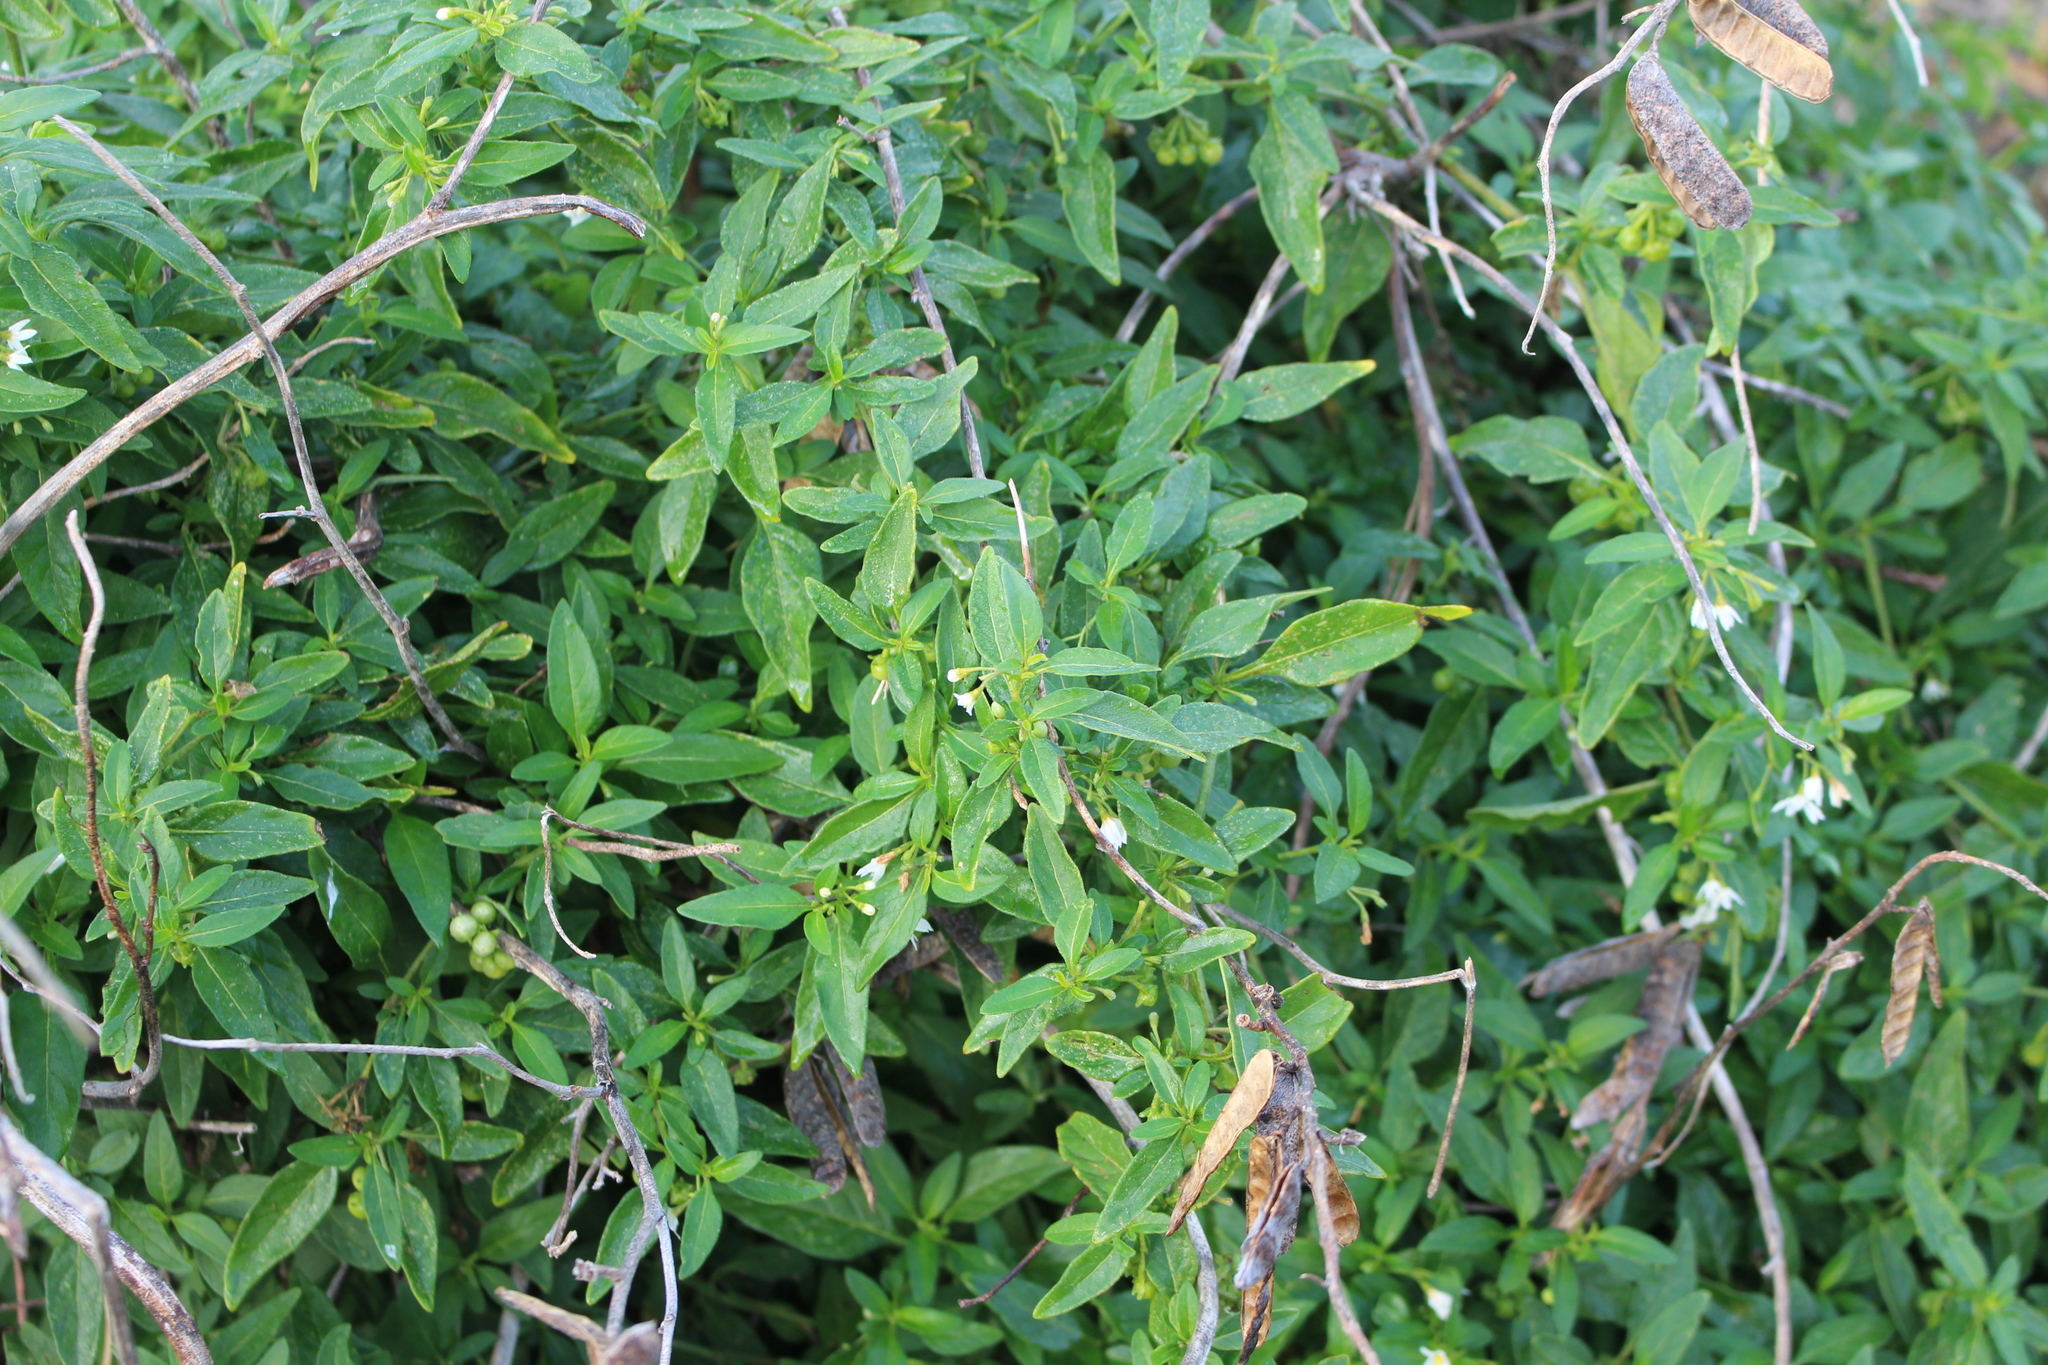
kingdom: Plantae
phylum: Tracheophyta
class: Magnoliopsida
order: Solanales
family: Solanaceae
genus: Solanum
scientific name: Solanum chenopodioides
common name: Tall nightshade
